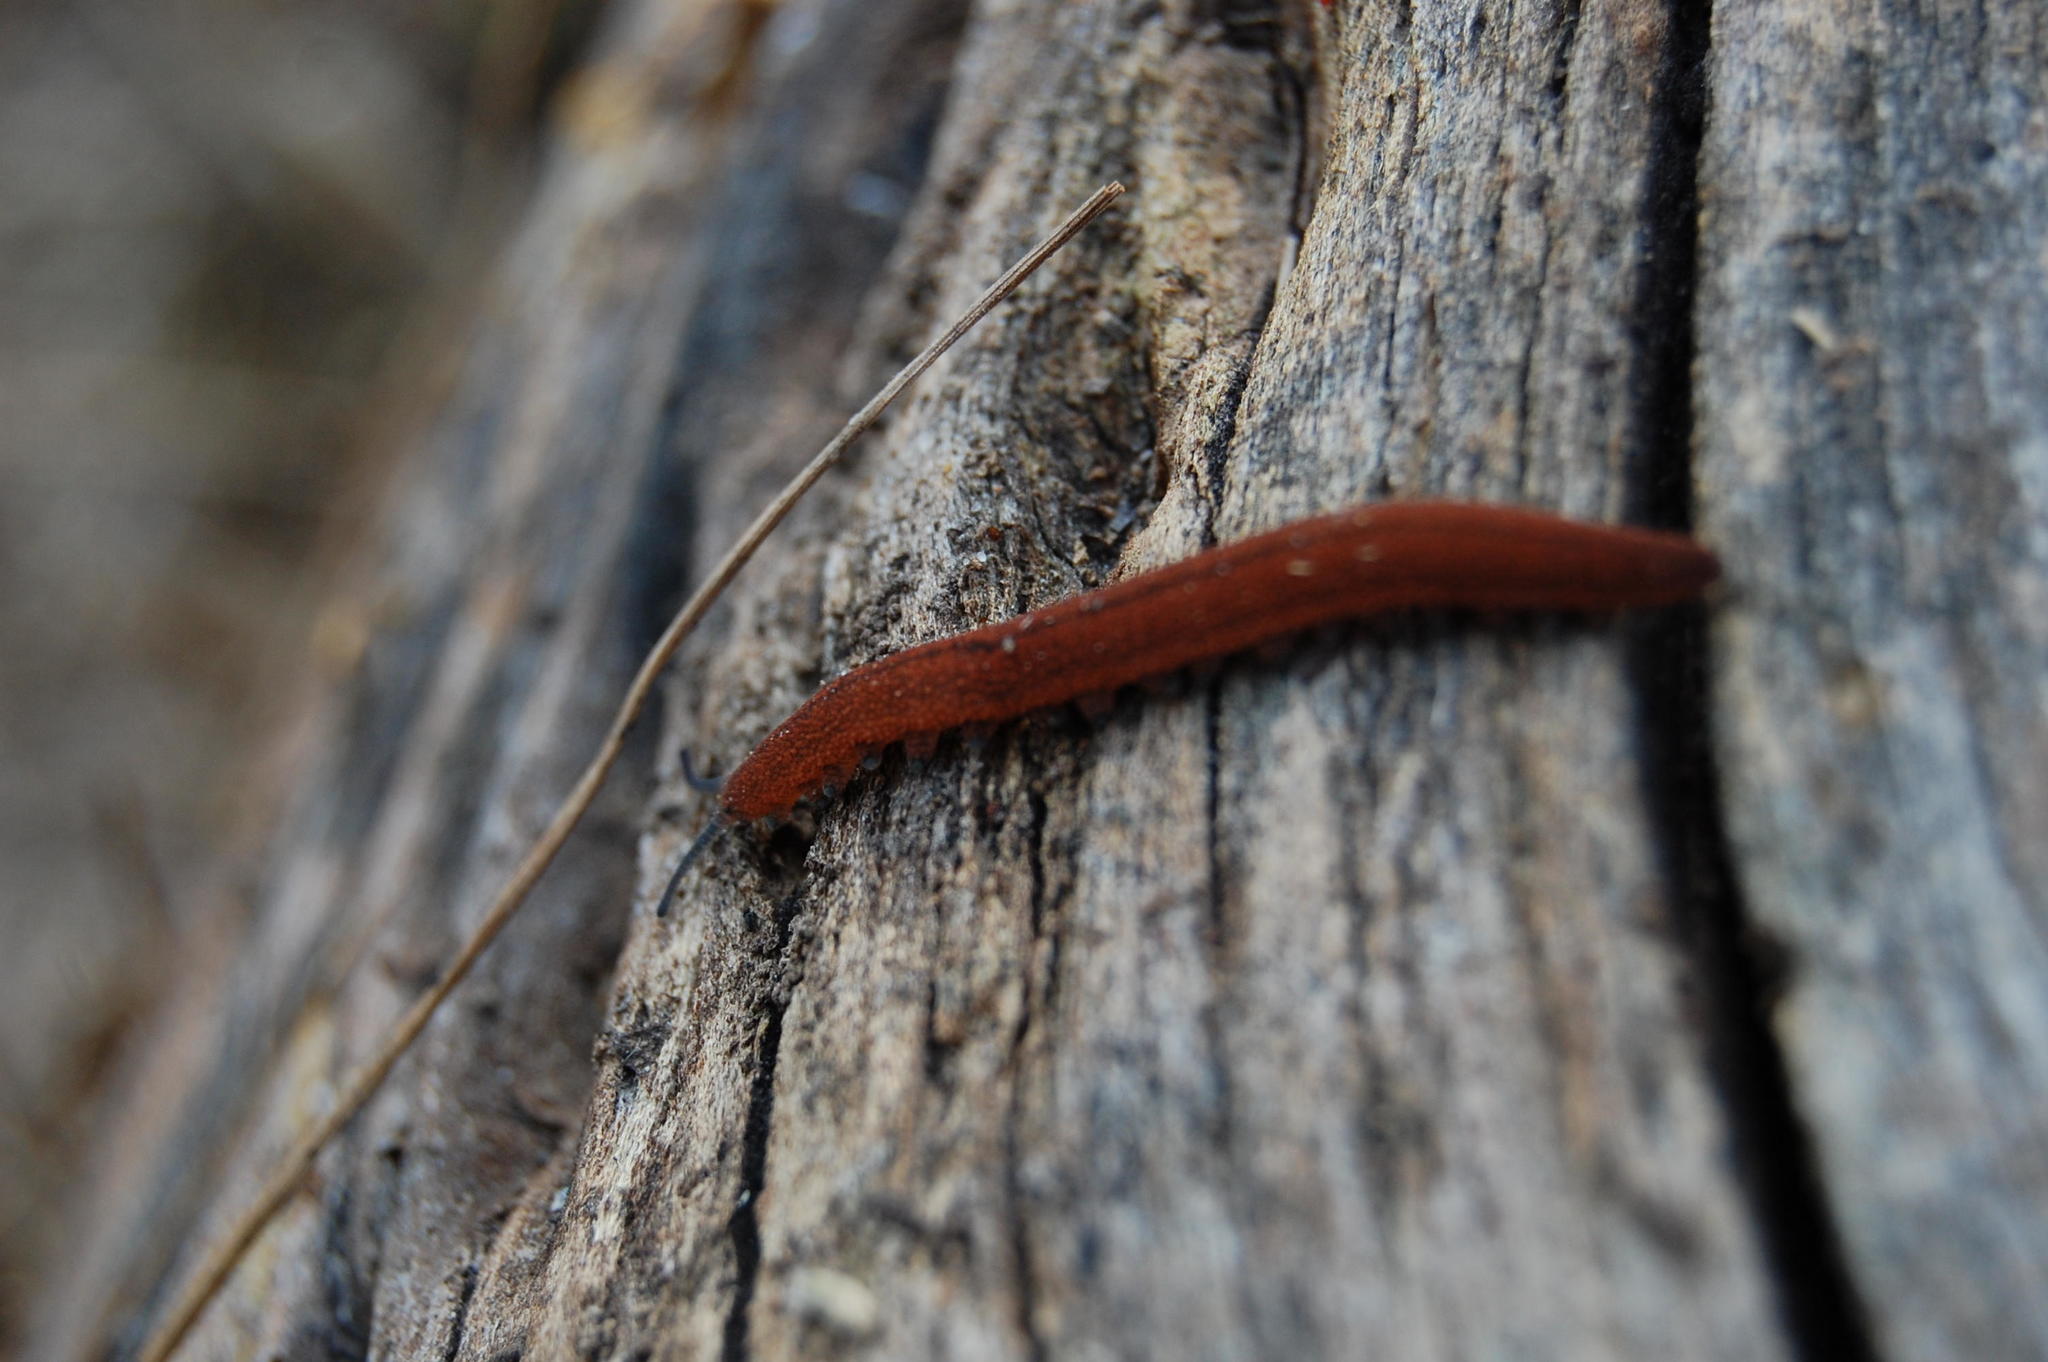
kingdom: Animalia
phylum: Onychophora
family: Peripatopsidae
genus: Peripatopsis
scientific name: Peripatopsis moseleyi
